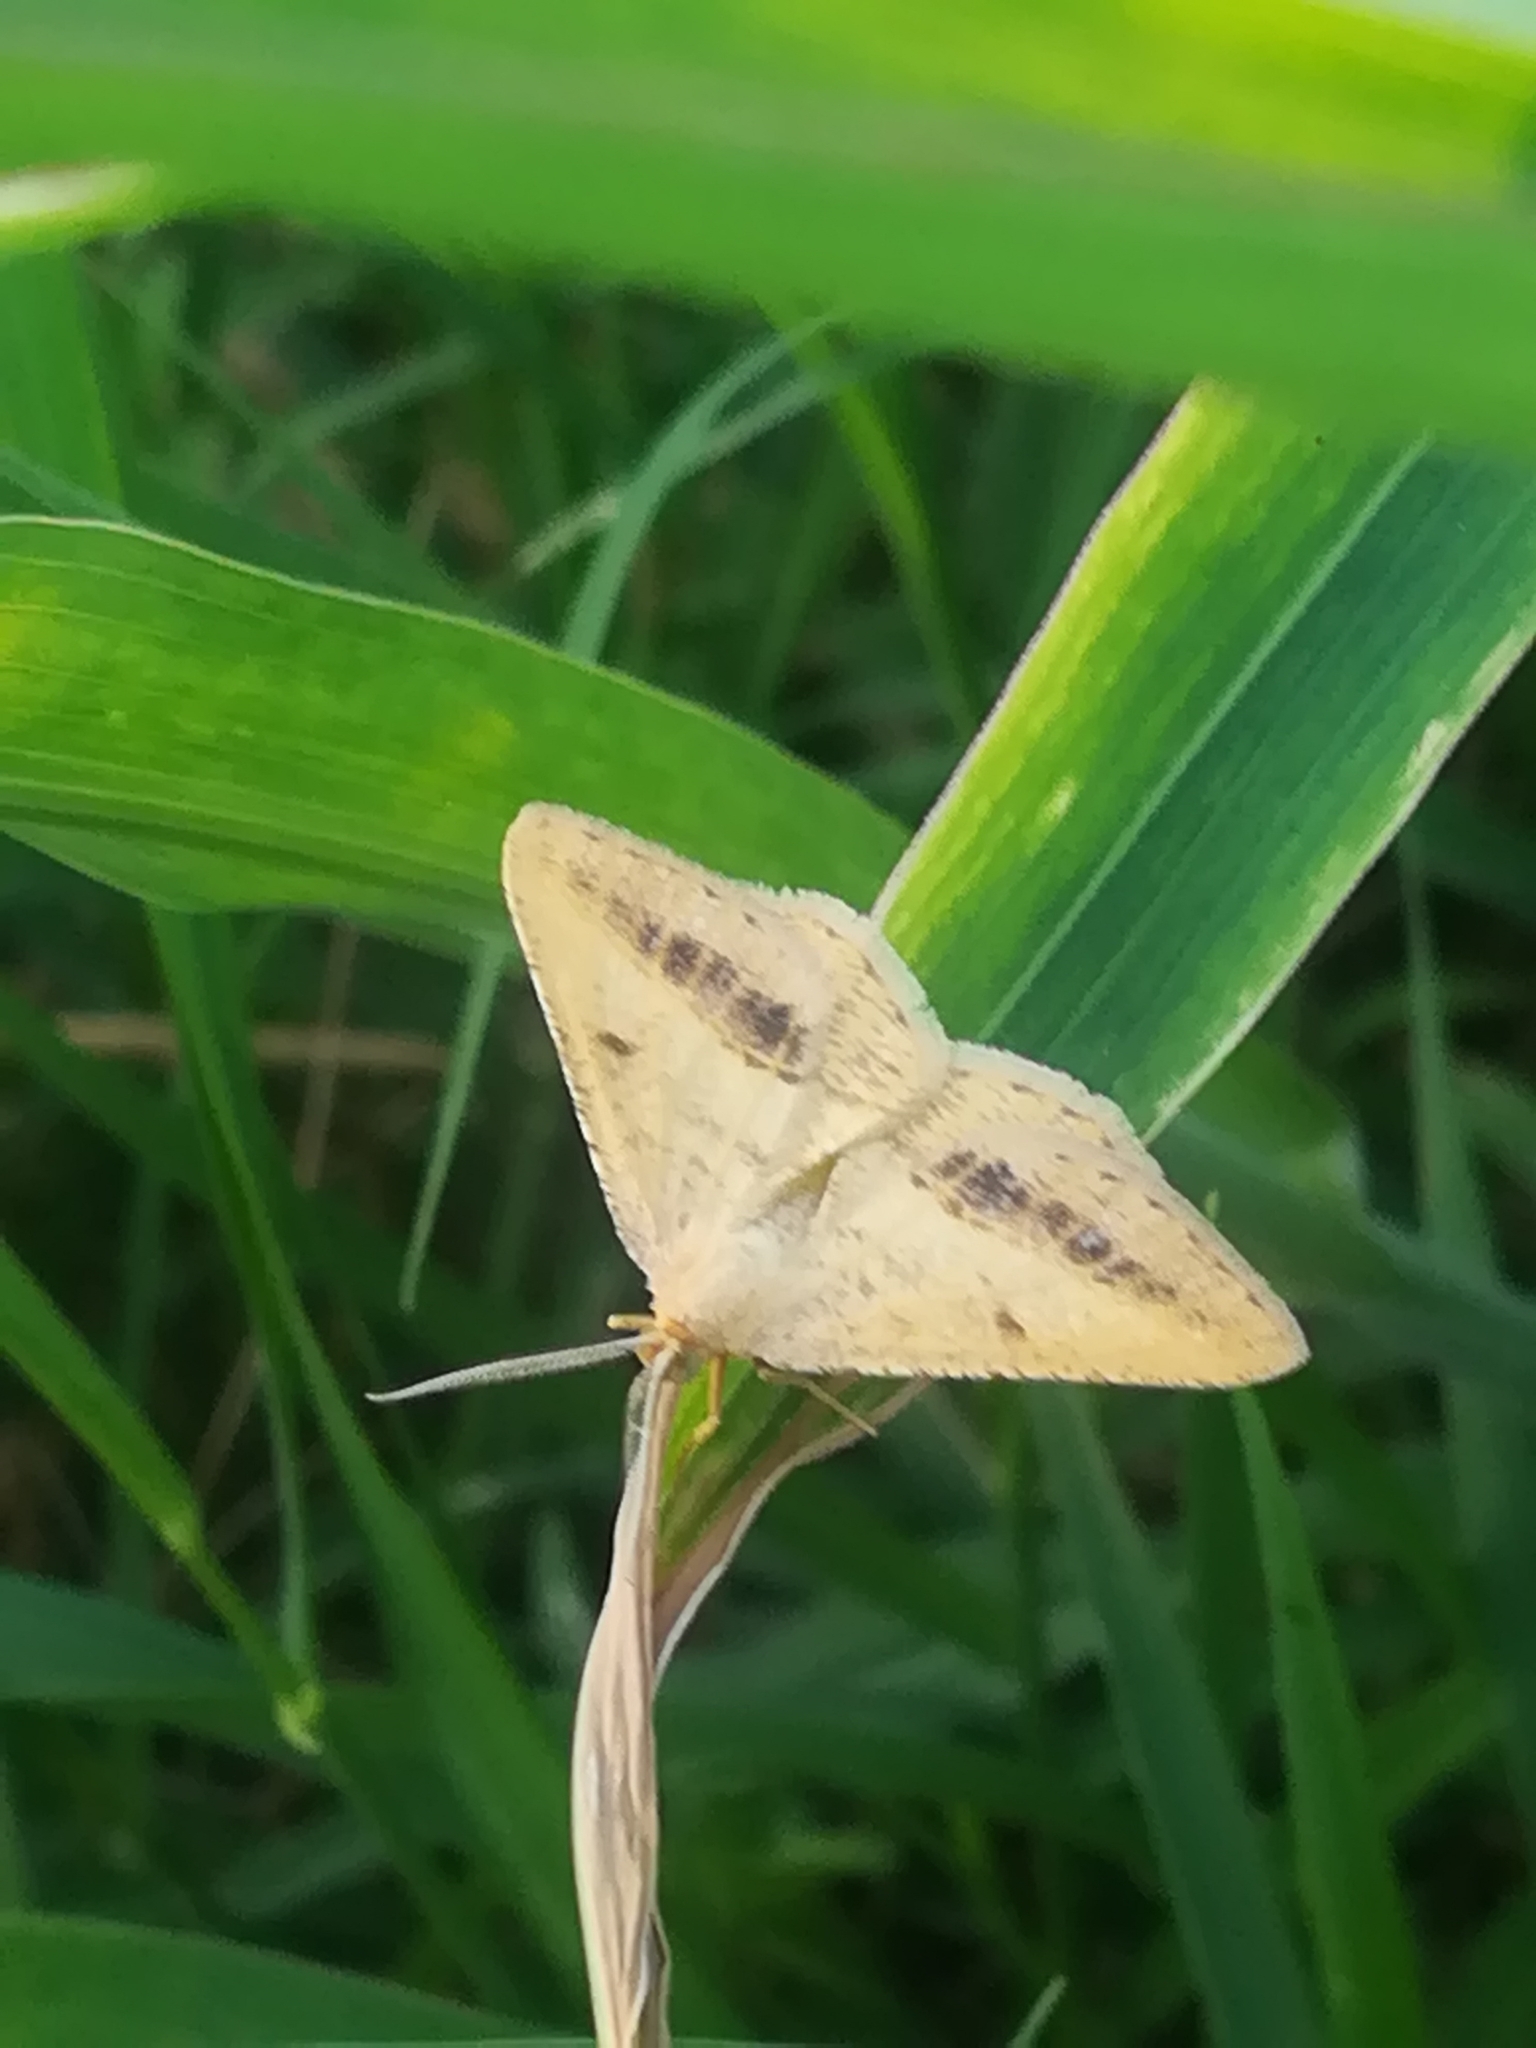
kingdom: Animalia
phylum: Arthropoda
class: Insecta
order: Lepidoptera
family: Geometridae
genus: Tephrina
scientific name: Tephrina arenacearia
